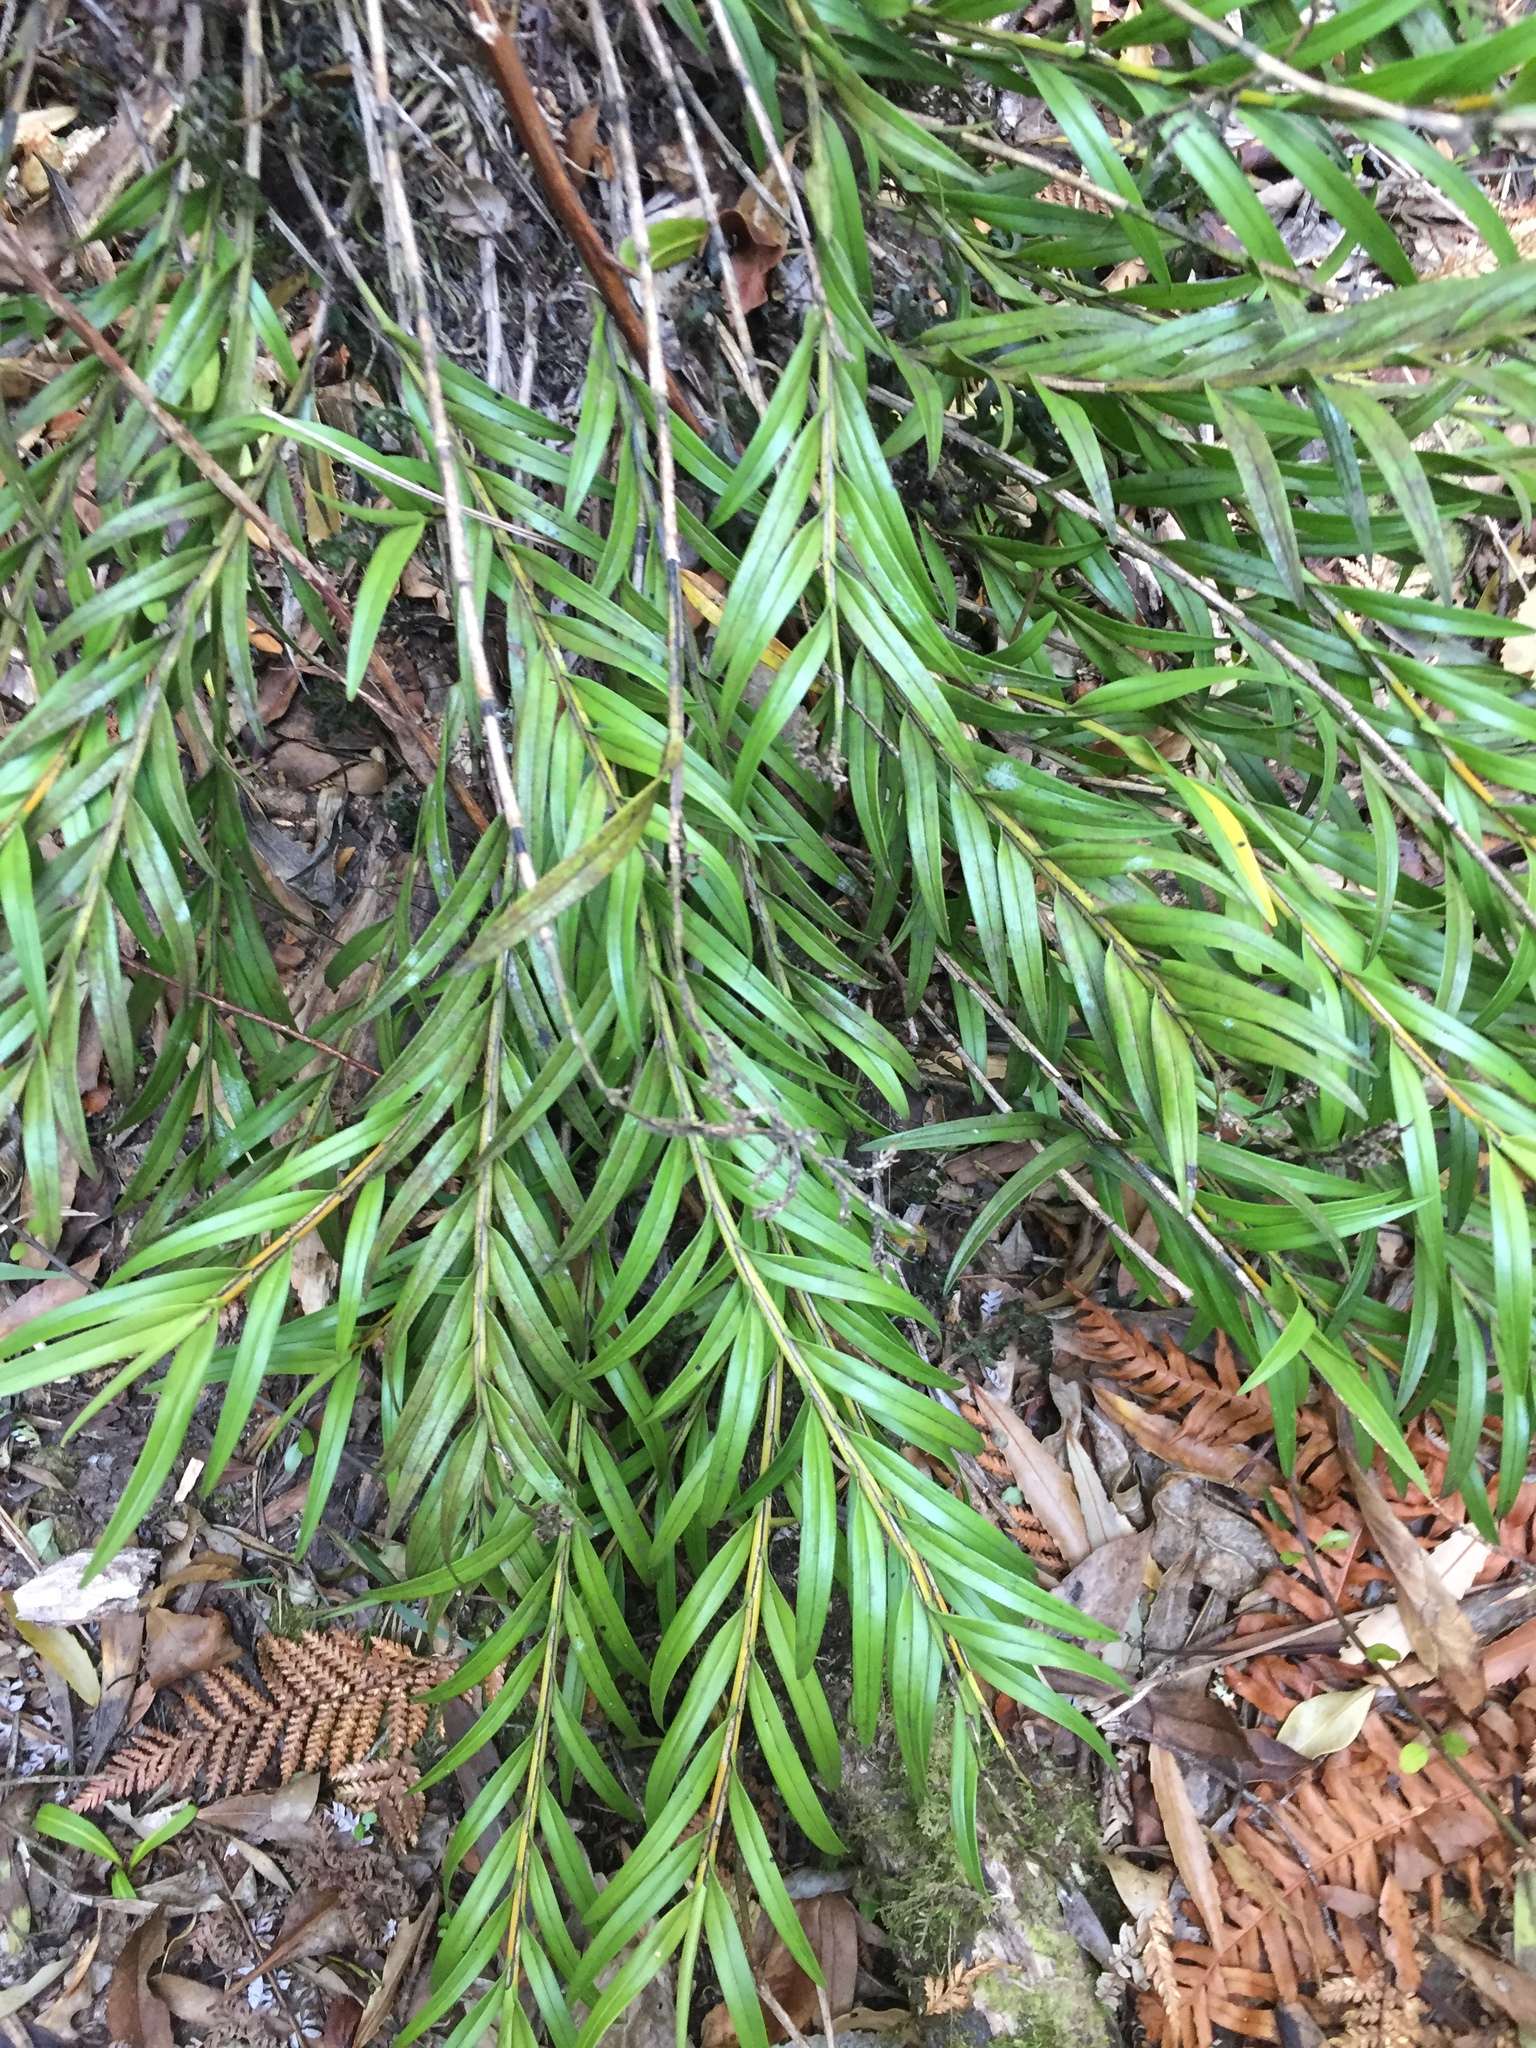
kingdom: Plantae
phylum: Tracheophyta
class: Liliopsida
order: Asparagales
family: Orchidaceae
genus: Earina
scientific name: Earina autumnalis
